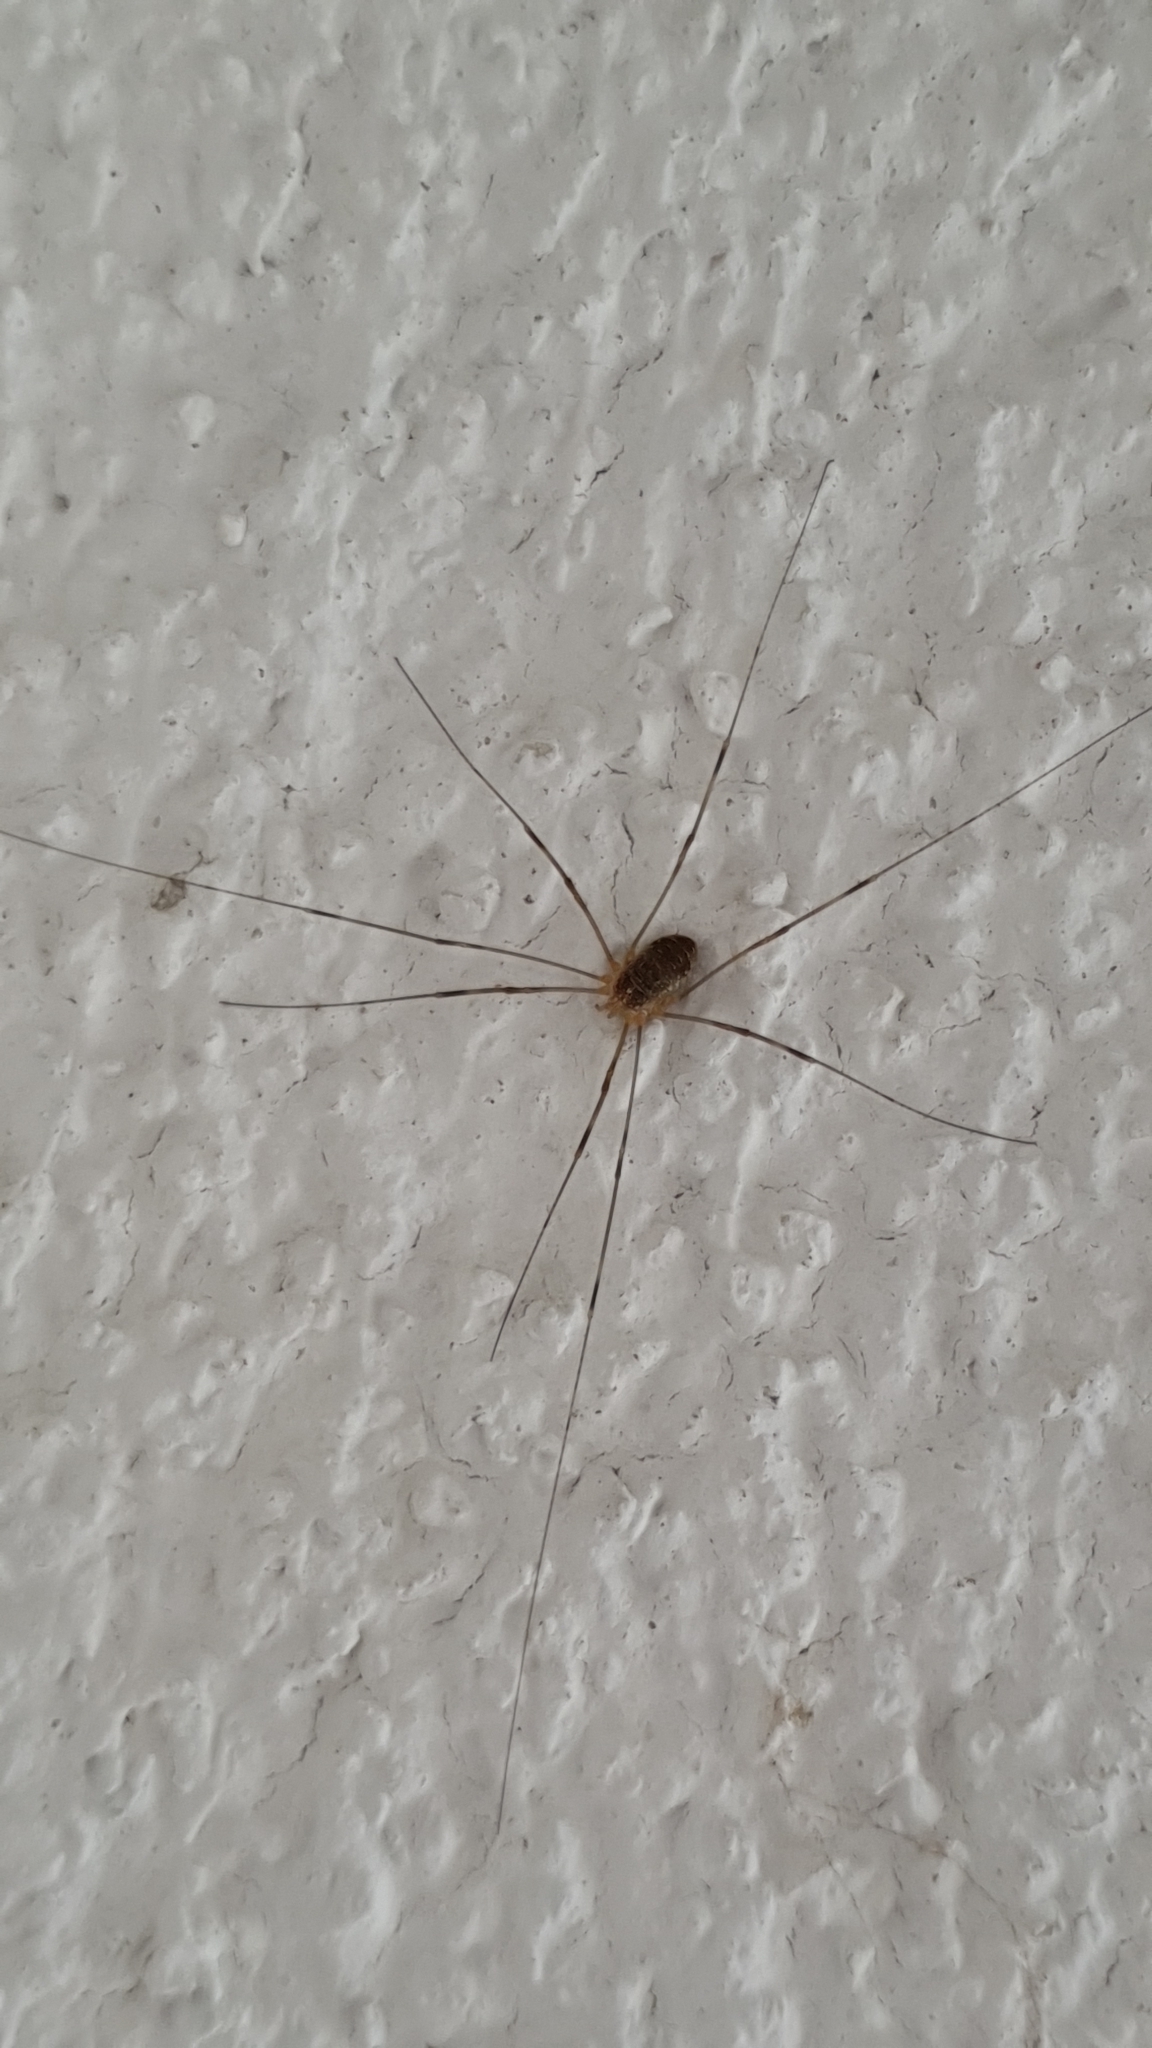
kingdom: Animalia
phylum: Arthropoda
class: Arachnida
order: Opiliones
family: Phalangiidae
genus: Opilio
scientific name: Opilio canestrinii
